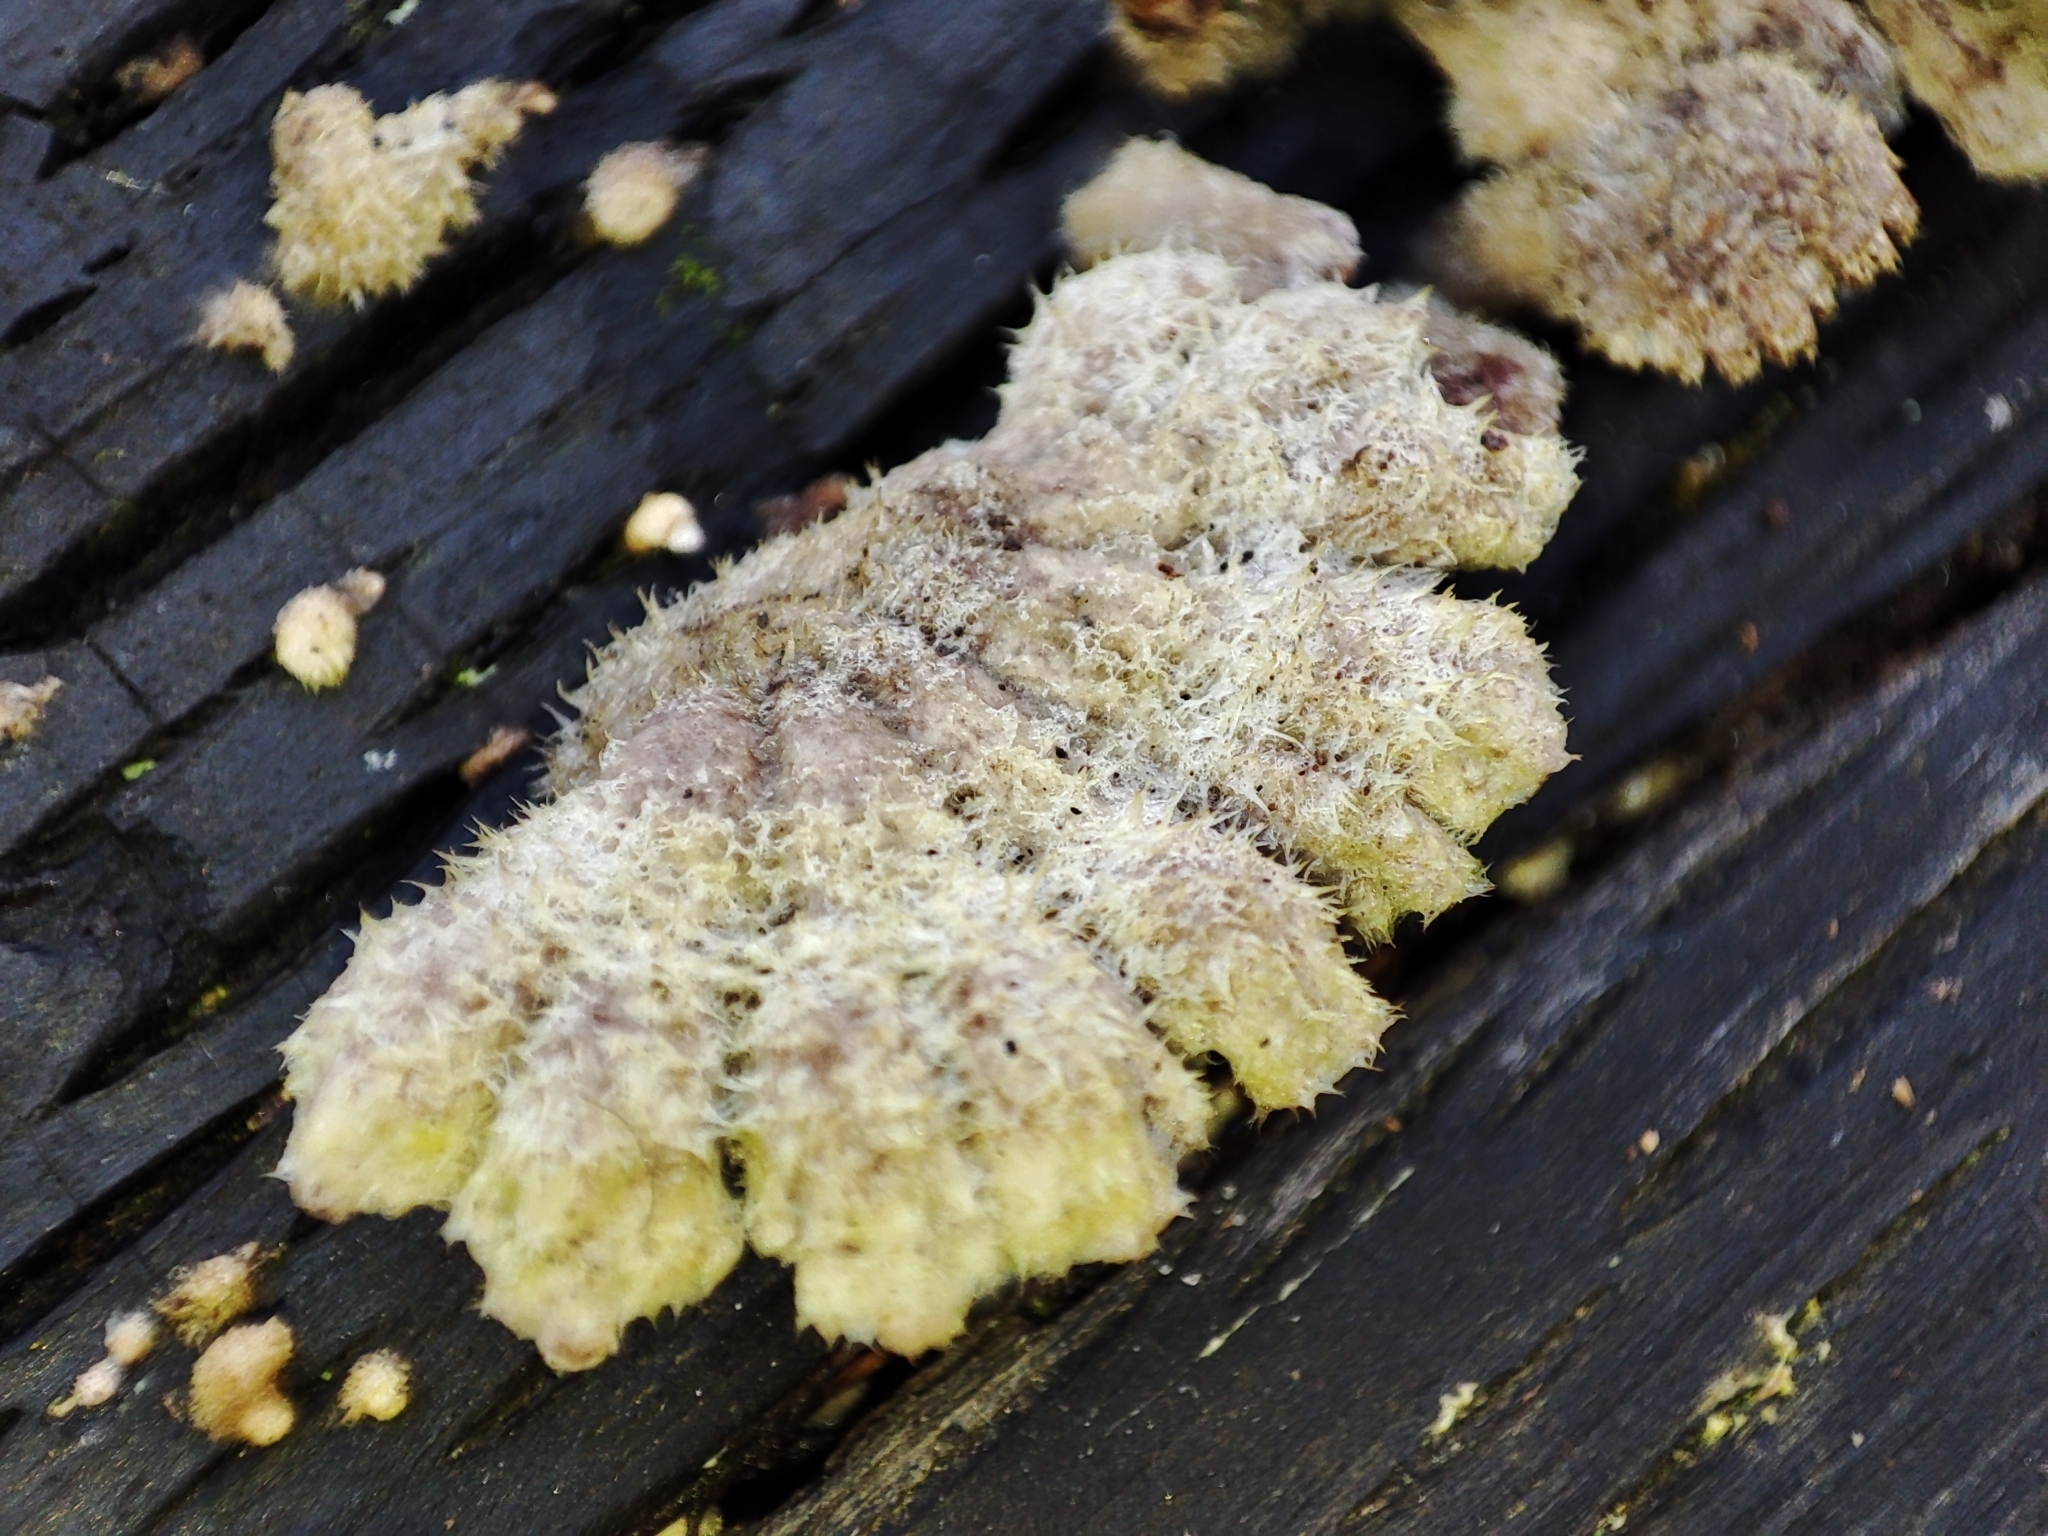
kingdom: Fungi
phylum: Basidiomycota
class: Agaricomycetes
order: Agaricales
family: Schizophyllaceae
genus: Schizophyllum
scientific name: Schizophyllum commune
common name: Common porecrust
